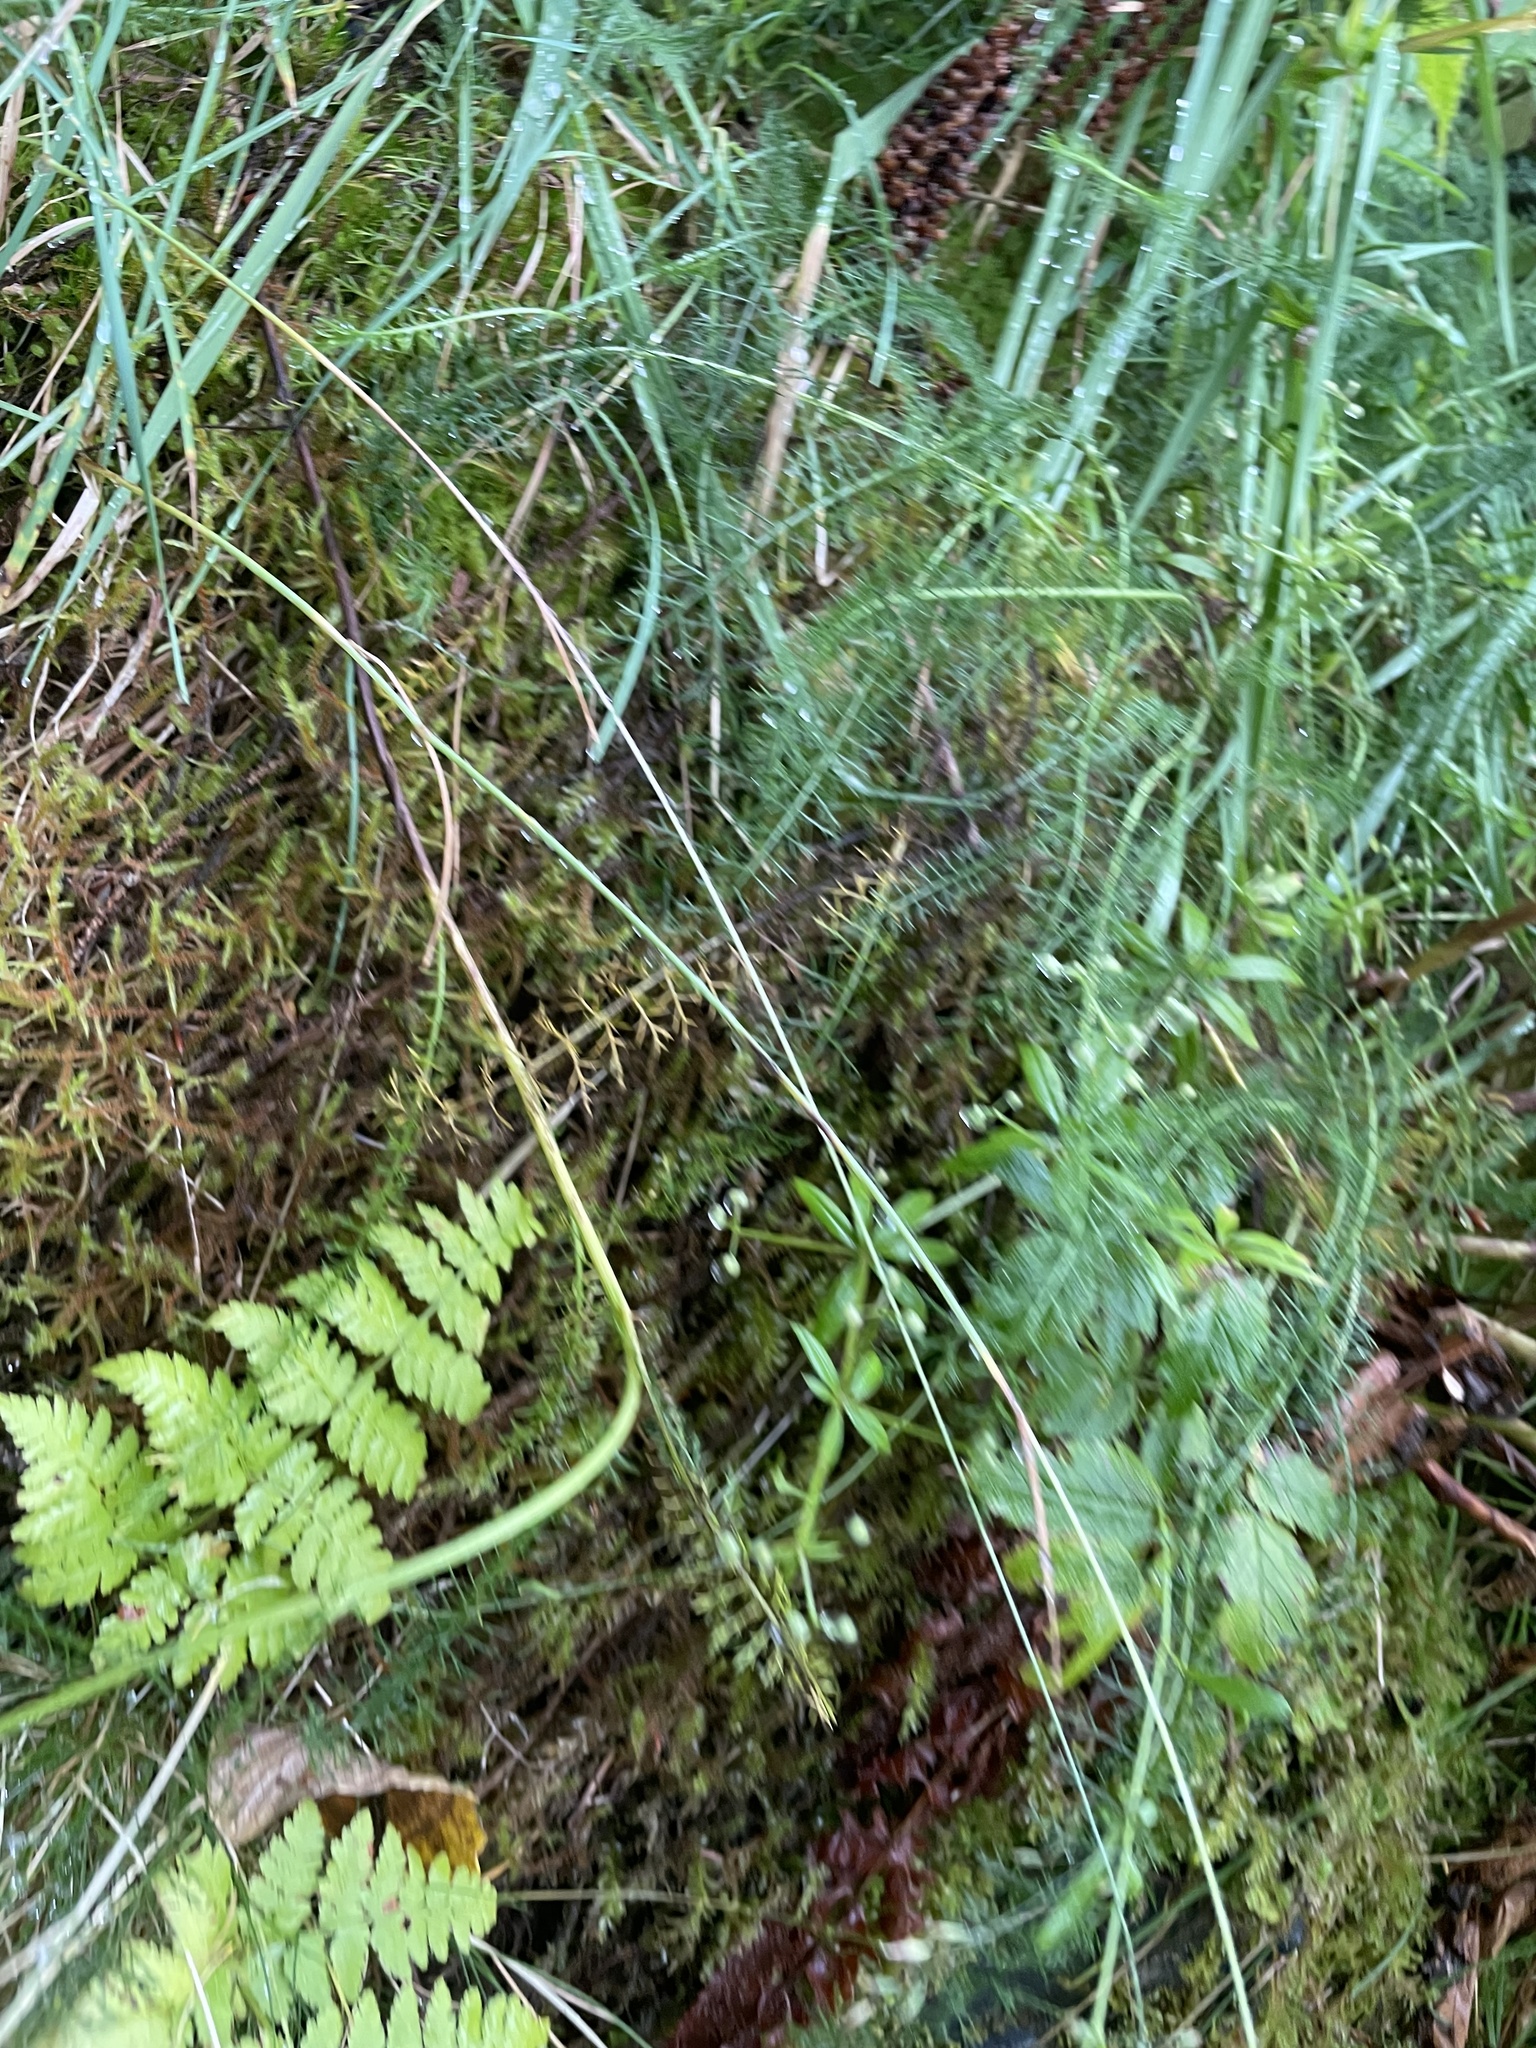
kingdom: Plantae
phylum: Tracheophyta
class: Magnoliopsida
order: Asterales
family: Asteraceae
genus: Achillea
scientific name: Achillea millefolium
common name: Yarrow
